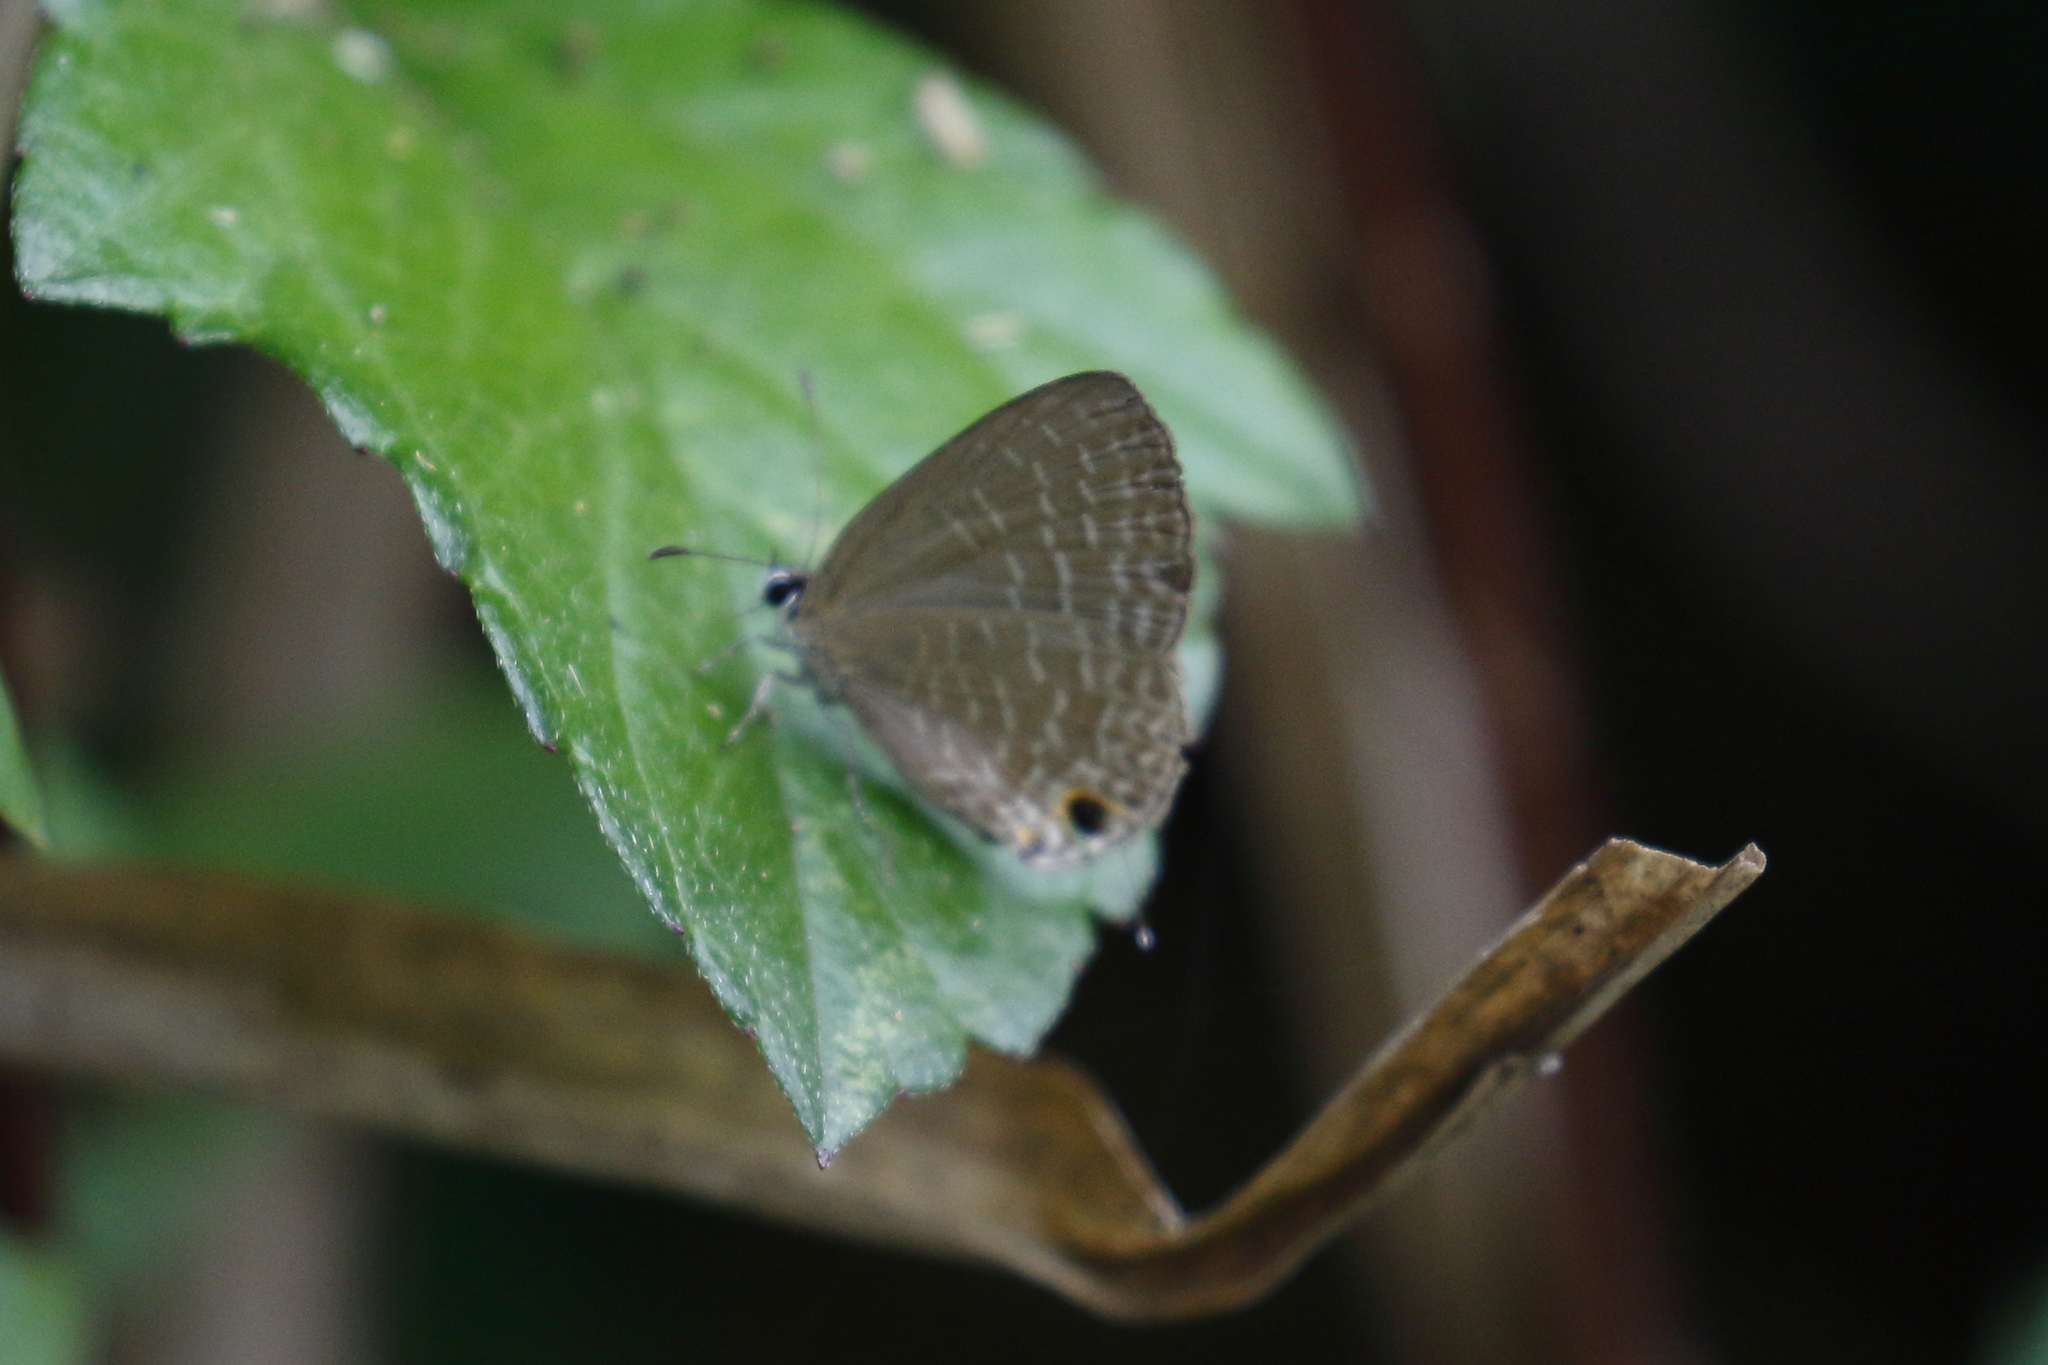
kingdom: Animalia
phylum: Arthropoda
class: Insecta
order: Lepidoptera
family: Lycaenidae
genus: Jamides
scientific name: Jamides bochus
